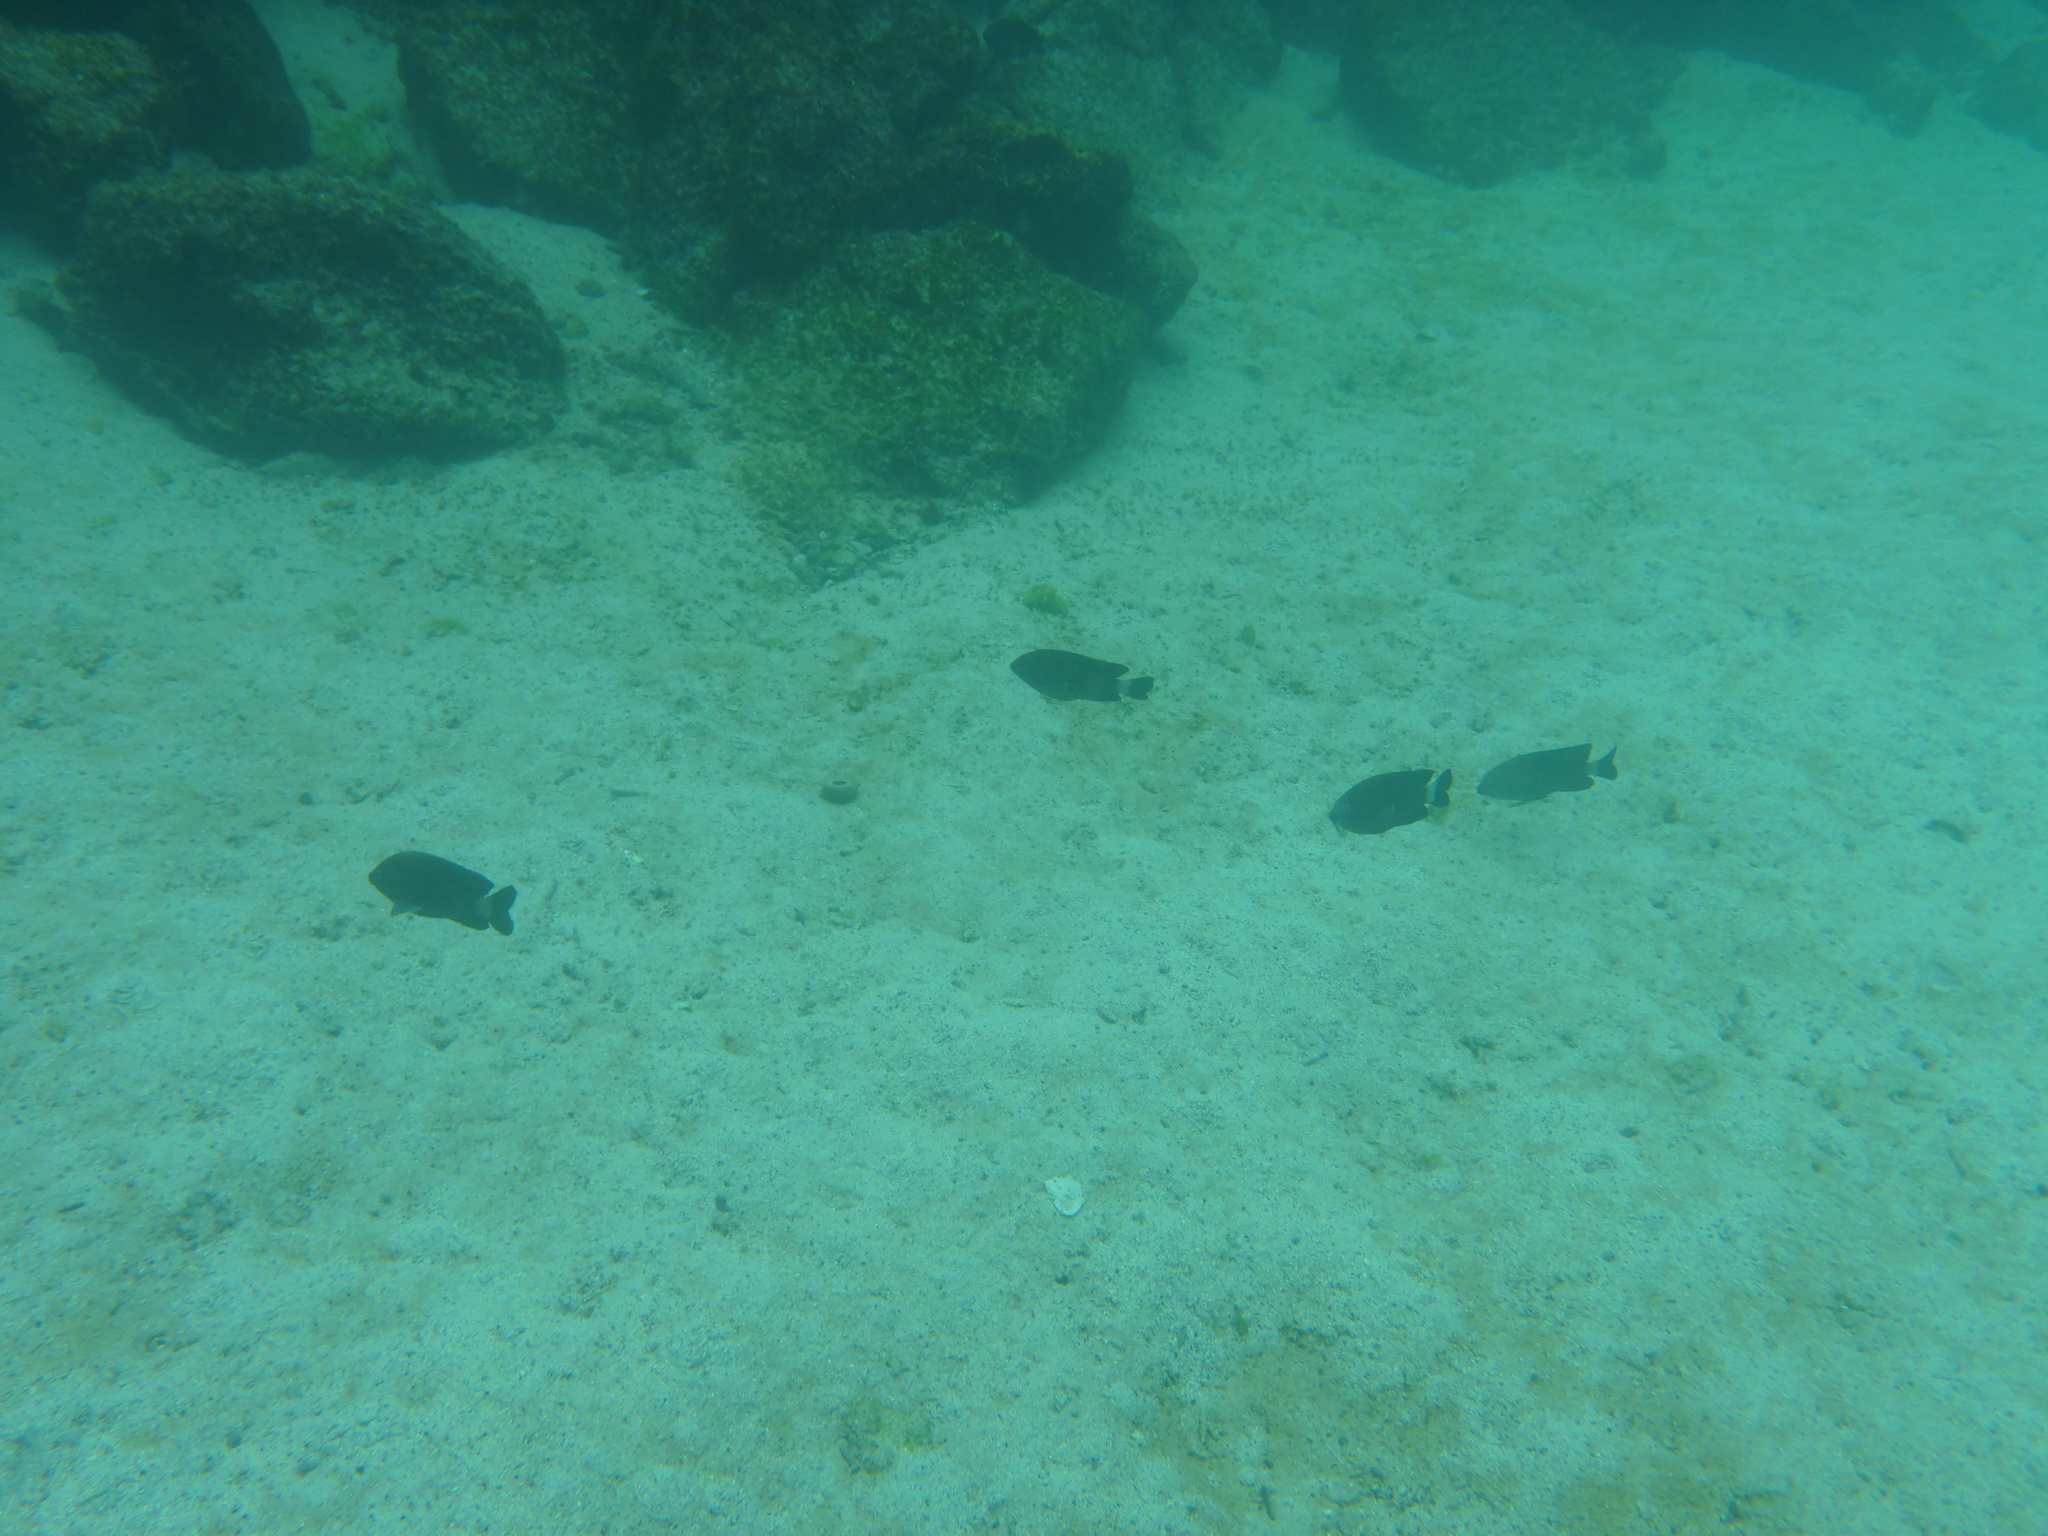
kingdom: Animalia
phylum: Chordata
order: Perciformes
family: Pomacentridae
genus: Stegastes
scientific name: Stegastes beebei
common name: Galapagos ringtail damselfish
